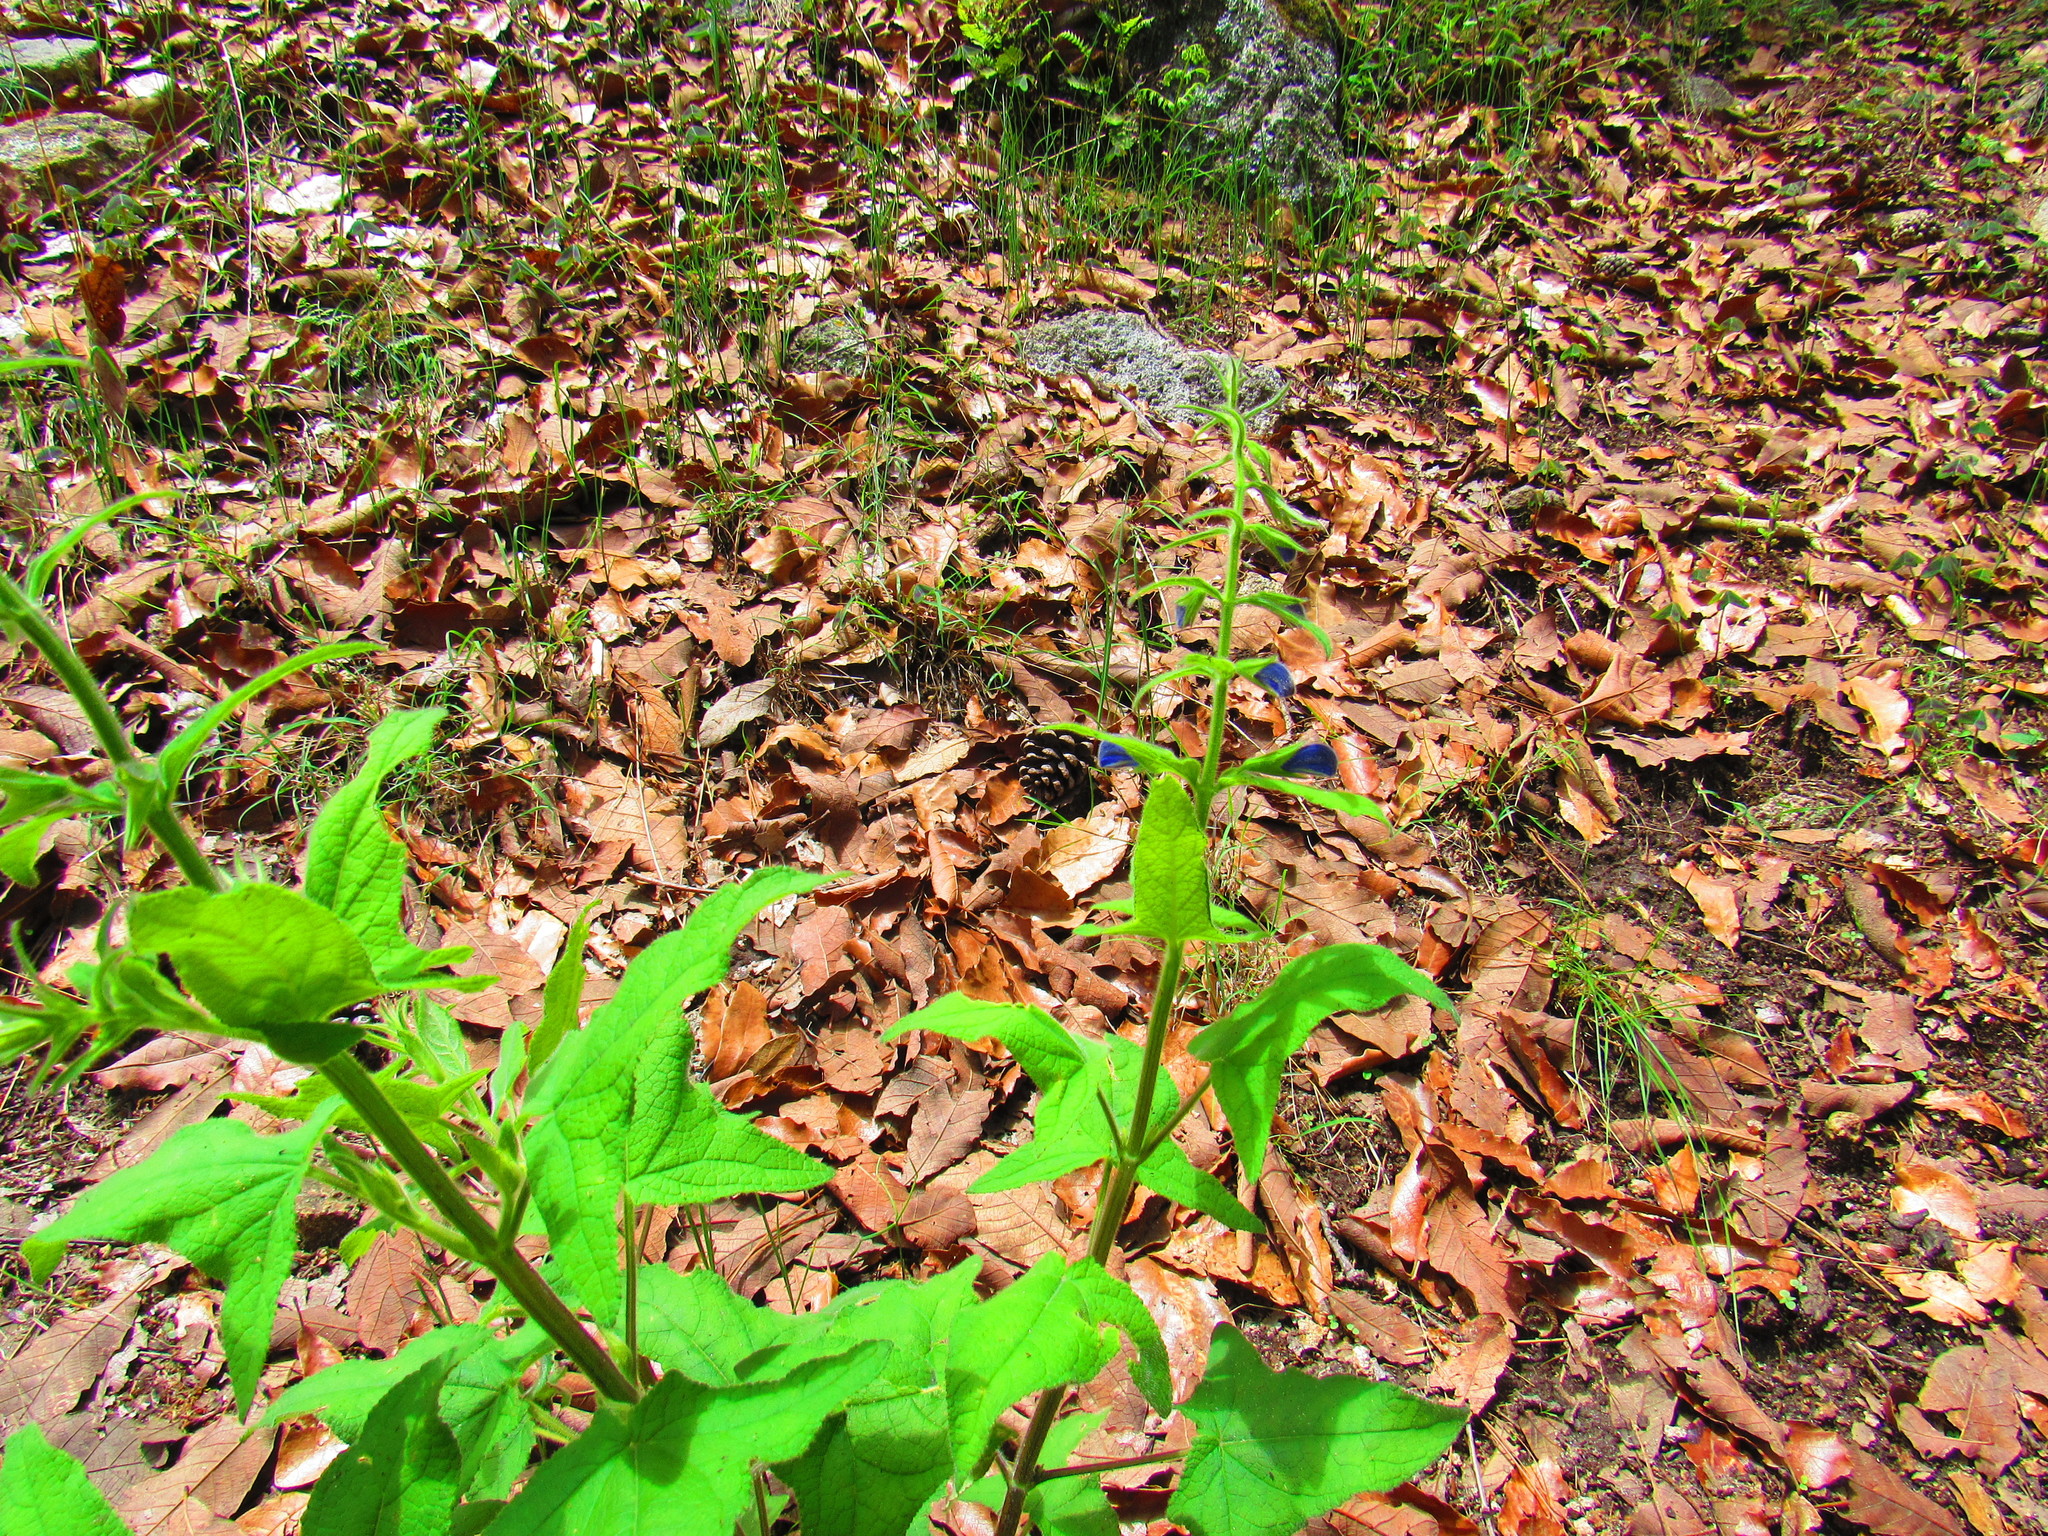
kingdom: Plantae
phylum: Tracheophyta
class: Magnoliopsida
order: Lamiales
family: Lamiaceae
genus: Salvia
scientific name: Salvia patens
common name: Blue sage
